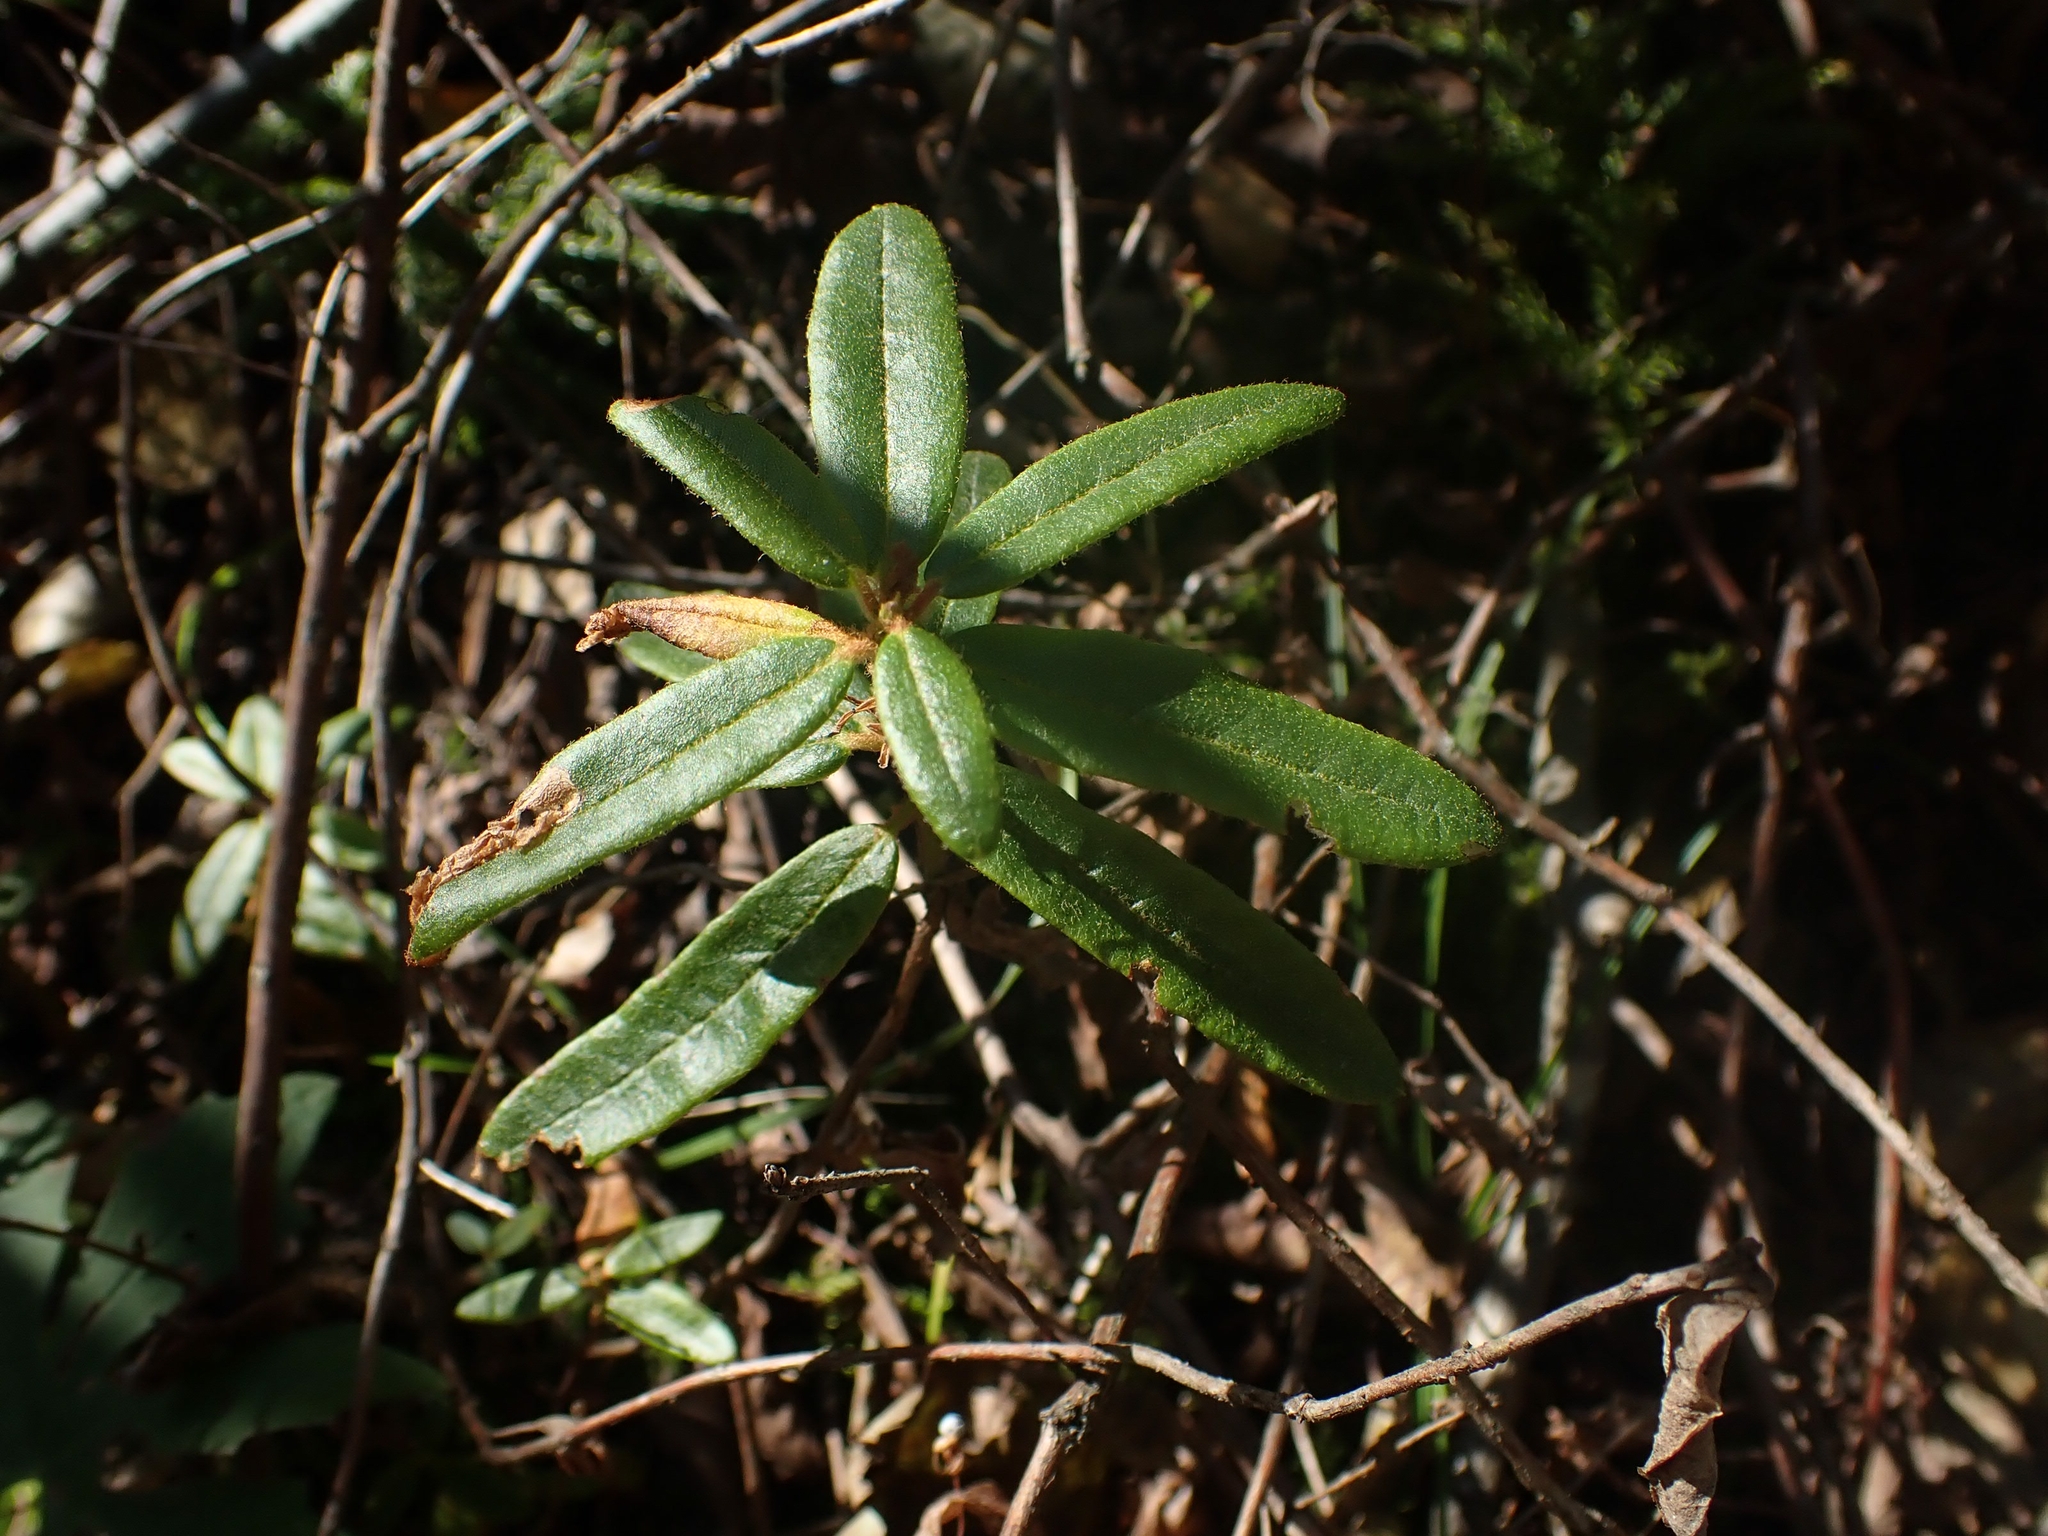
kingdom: Plantae
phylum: Tracheophyta
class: Magnoliopsida
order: Ericales
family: Ericaceae
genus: Rhododendron
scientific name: Rhododendron groenlandicum
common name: Bog labrador tea
